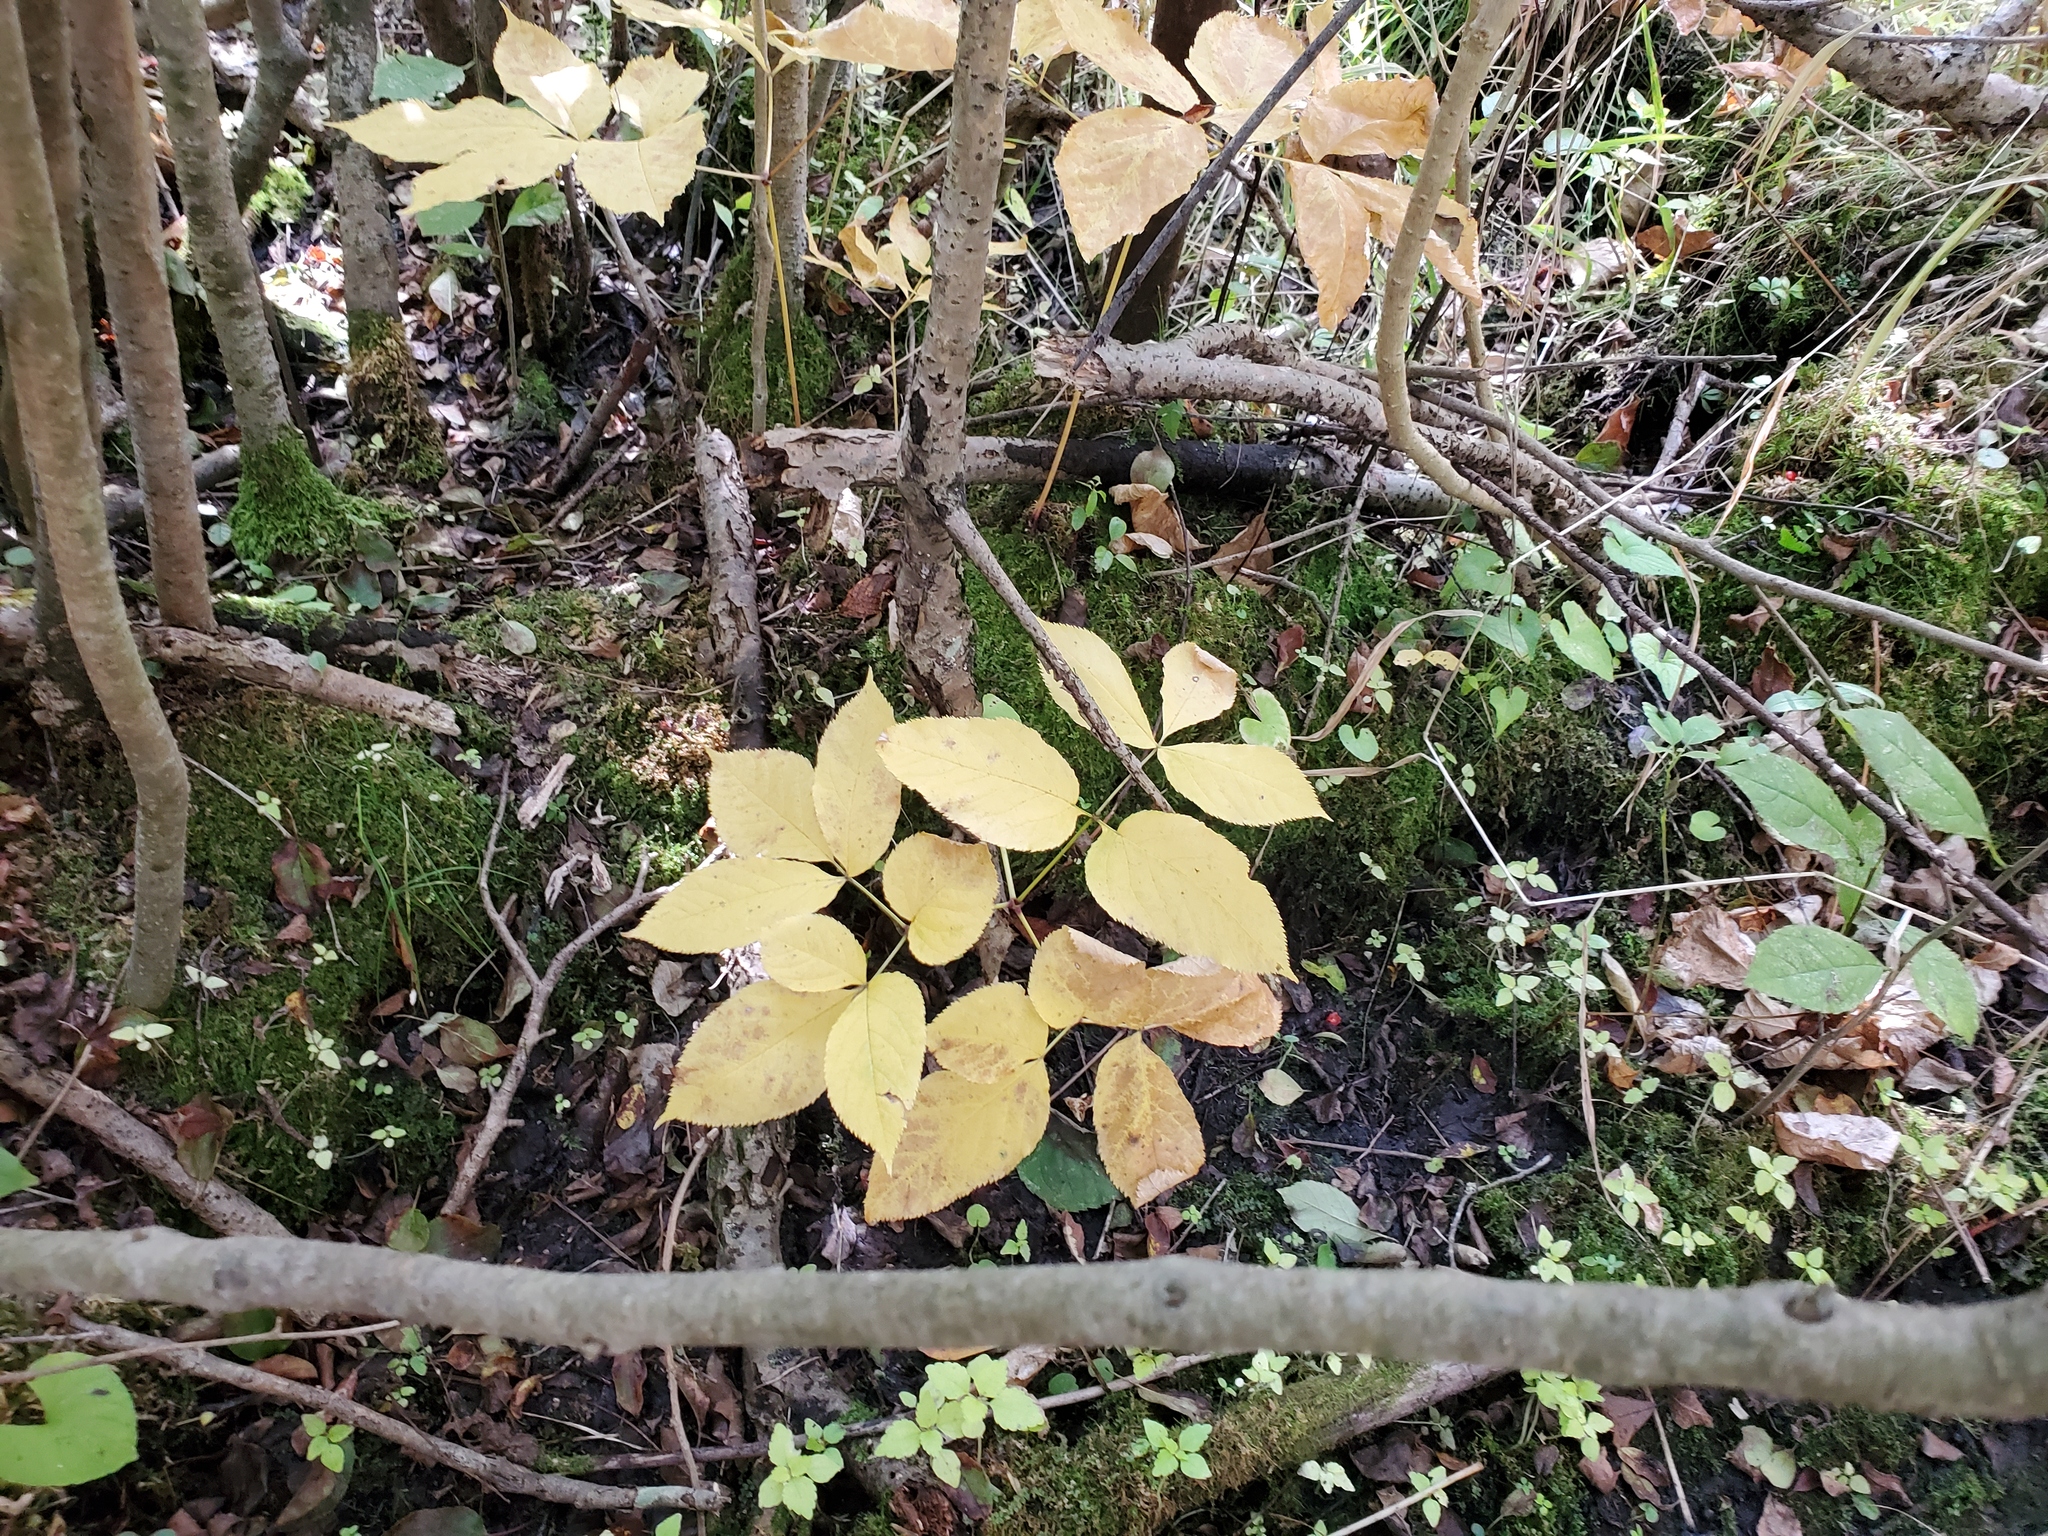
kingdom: Plantae
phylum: Tracheophyta
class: Magnoliopsida
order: Apiales
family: Araliaceae
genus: Aralia
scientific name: Aralia nudicaulis
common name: Wild sarsaparilla
